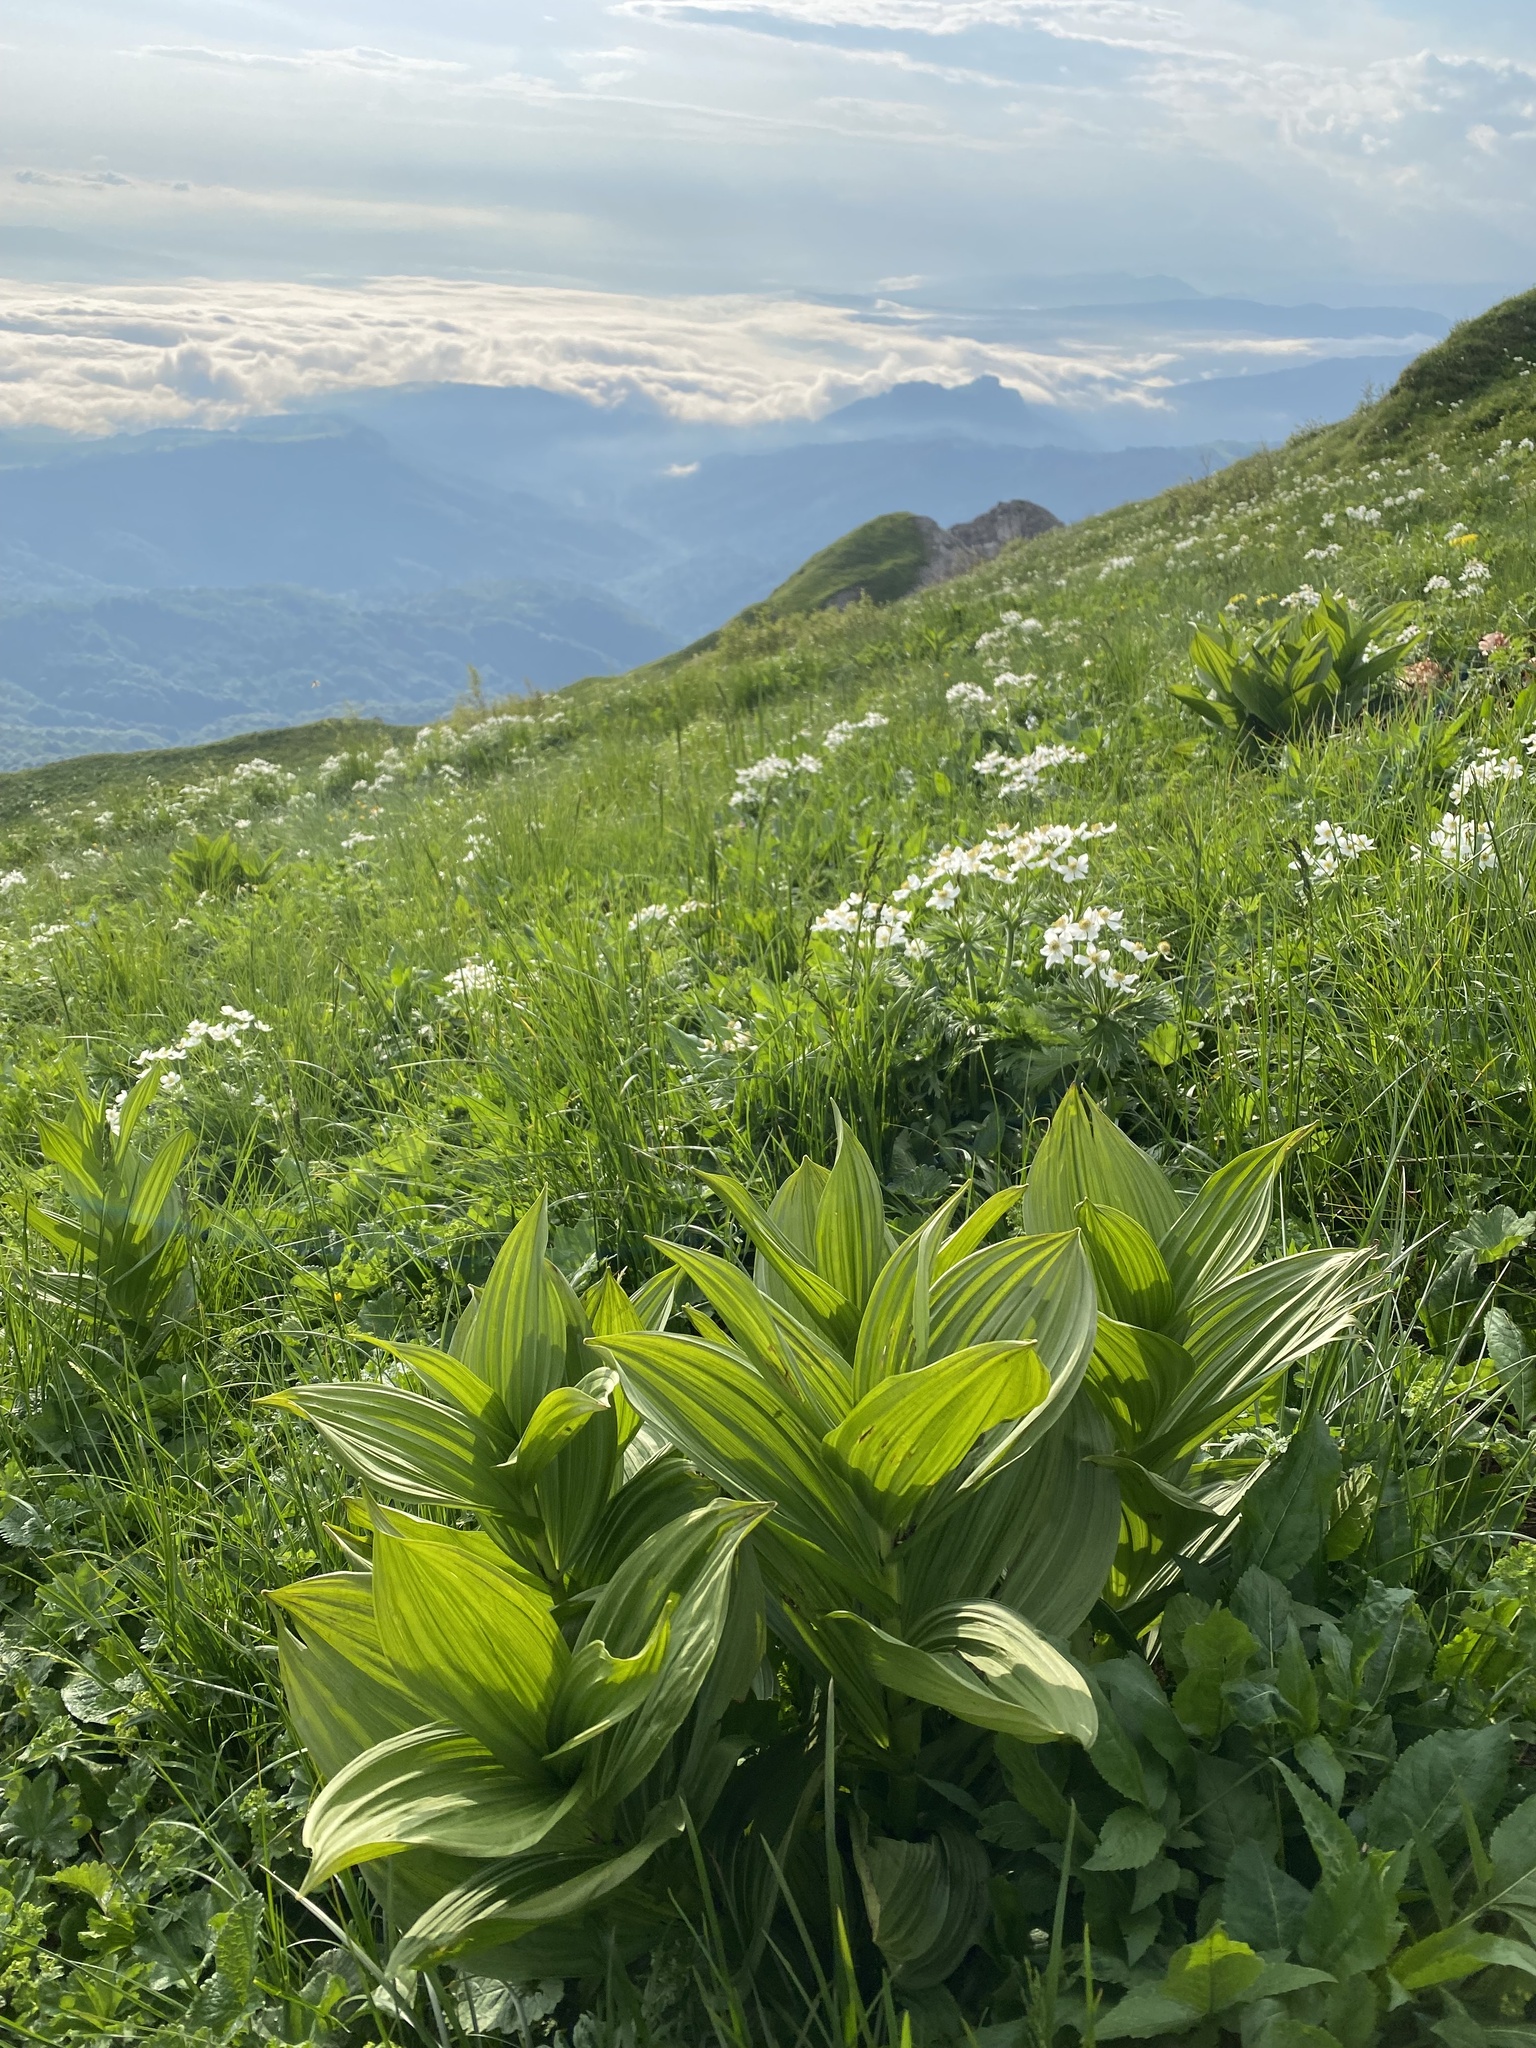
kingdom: Plantae
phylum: Tracheophyta
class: Liliopsida
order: Liliales
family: Melanthiaceae
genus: Veratrum
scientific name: Veratrum lobelianum
